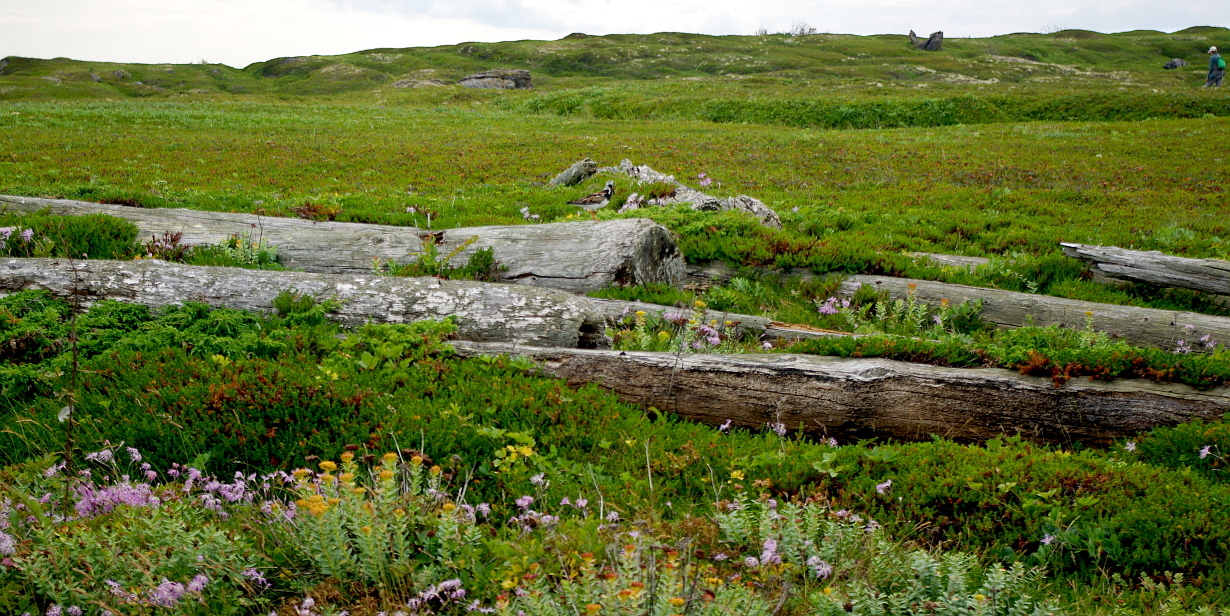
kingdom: Plantae
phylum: Tracheophyta
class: Magnoliopsida
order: Caryophyllales
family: Caryophyllaceae
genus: Dianthus
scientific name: Dianthus superbus
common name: Fringed pink
